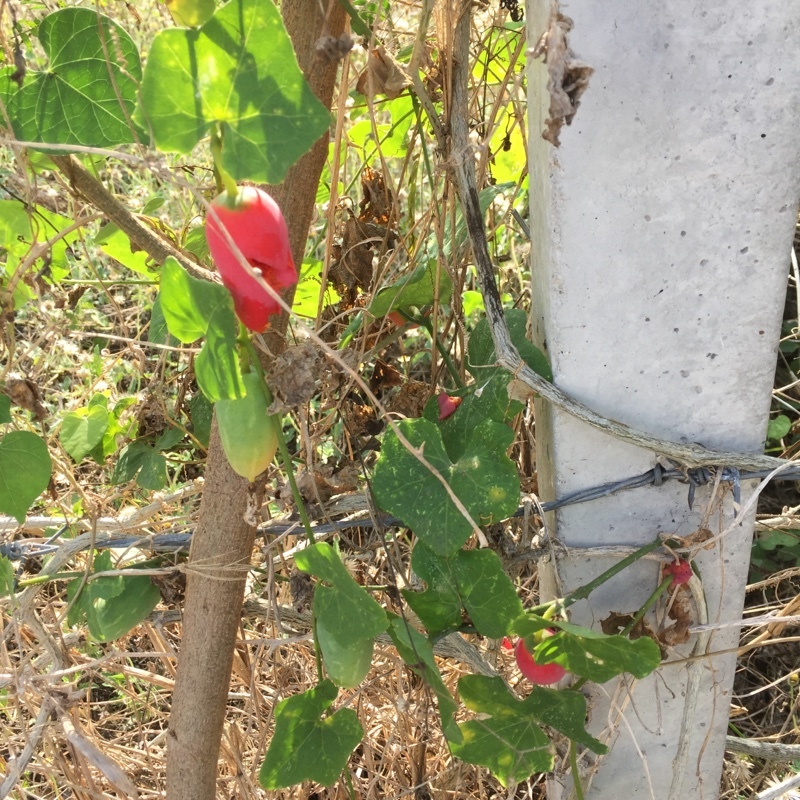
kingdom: Plantae
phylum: Tracheophyta
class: Magnoliopsida
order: Cucurbitales
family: Cucurbitaceae
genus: Coccinia
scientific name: Coccinia grandis
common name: Ivy gourd
